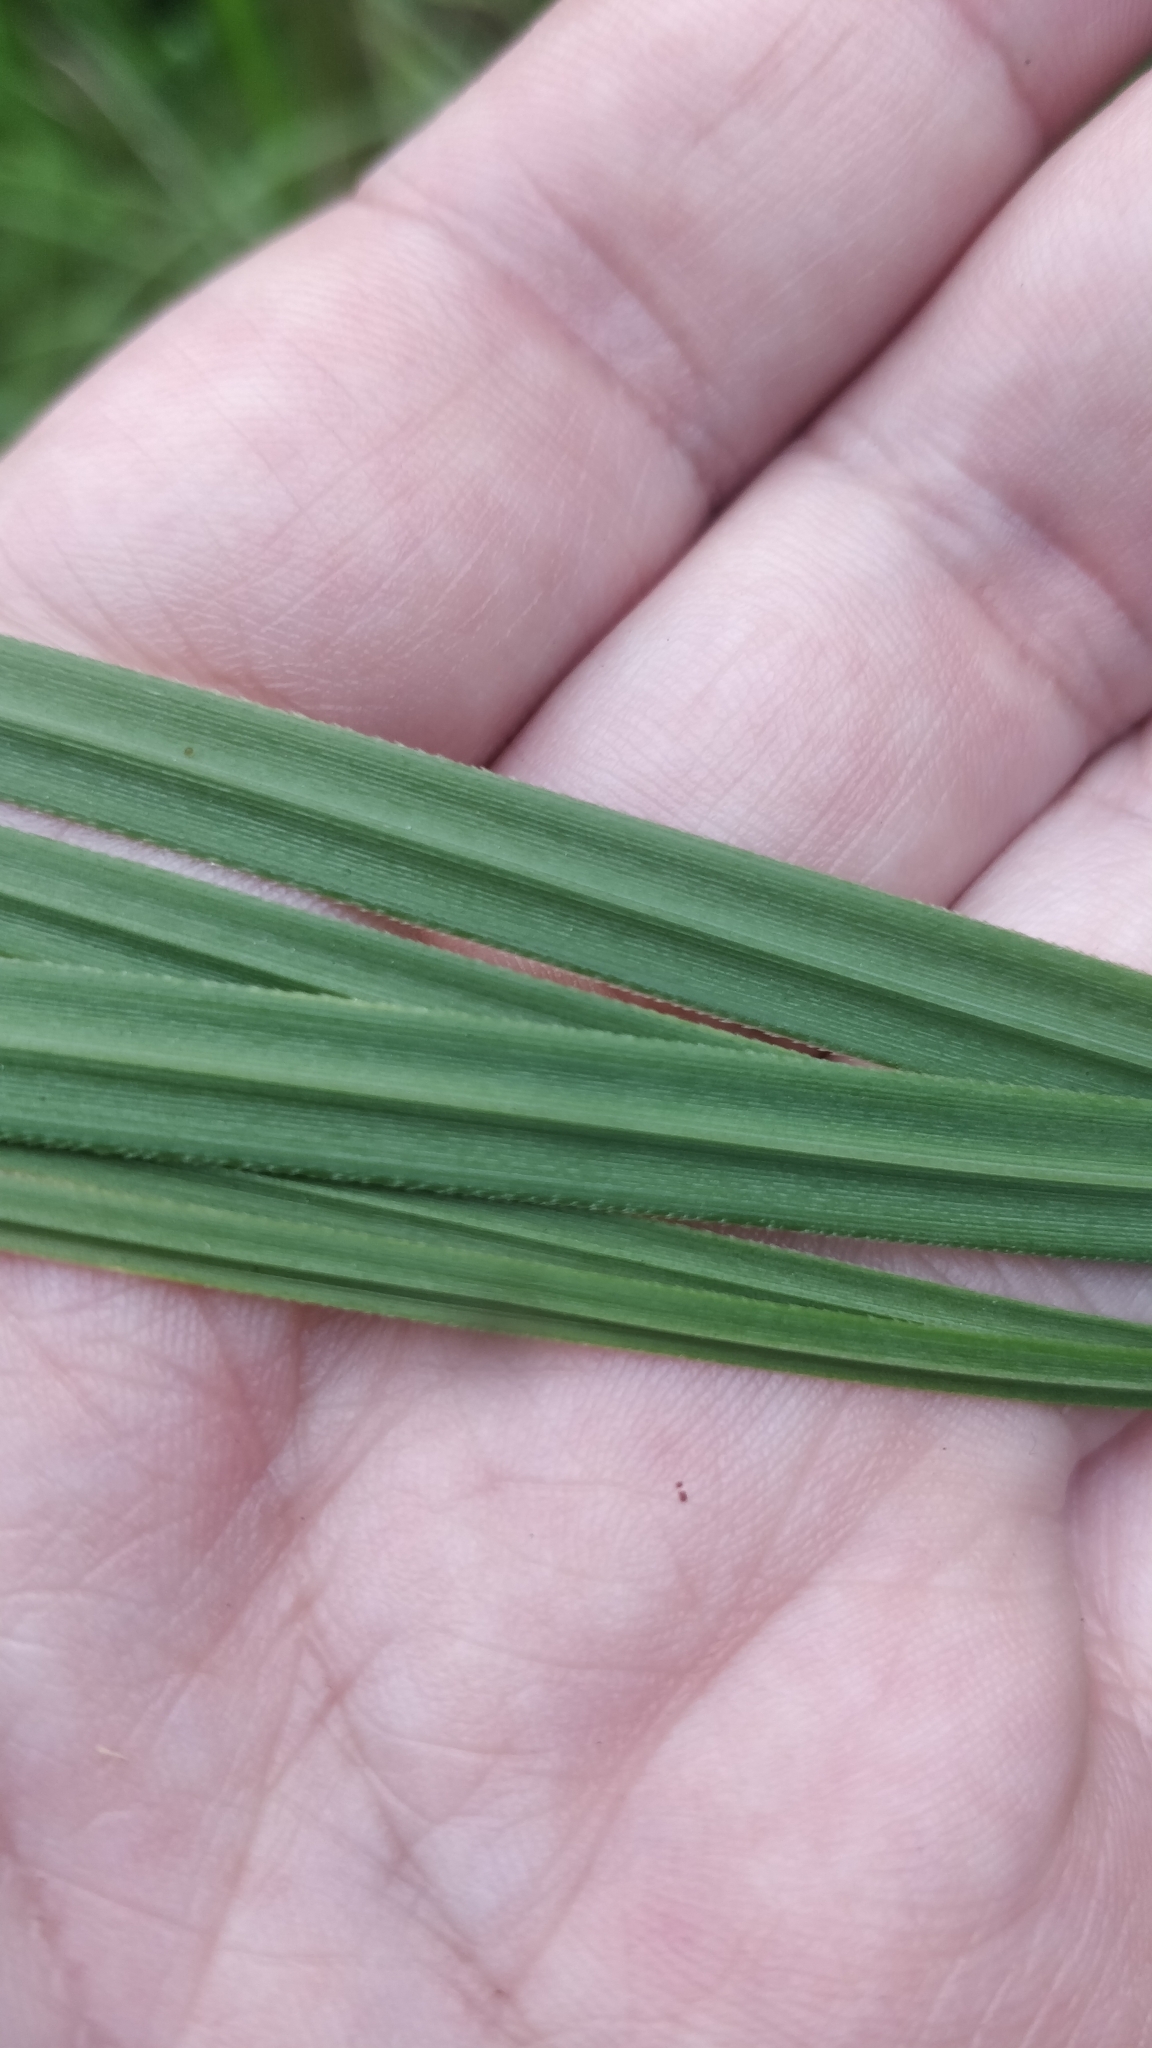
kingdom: Plantae
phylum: Tracheophyta
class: Liliopsida
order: Poales
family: Poaceae
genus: Cortaderia
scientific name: Cortaderia selloana
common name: Uruguayan pampas grass
